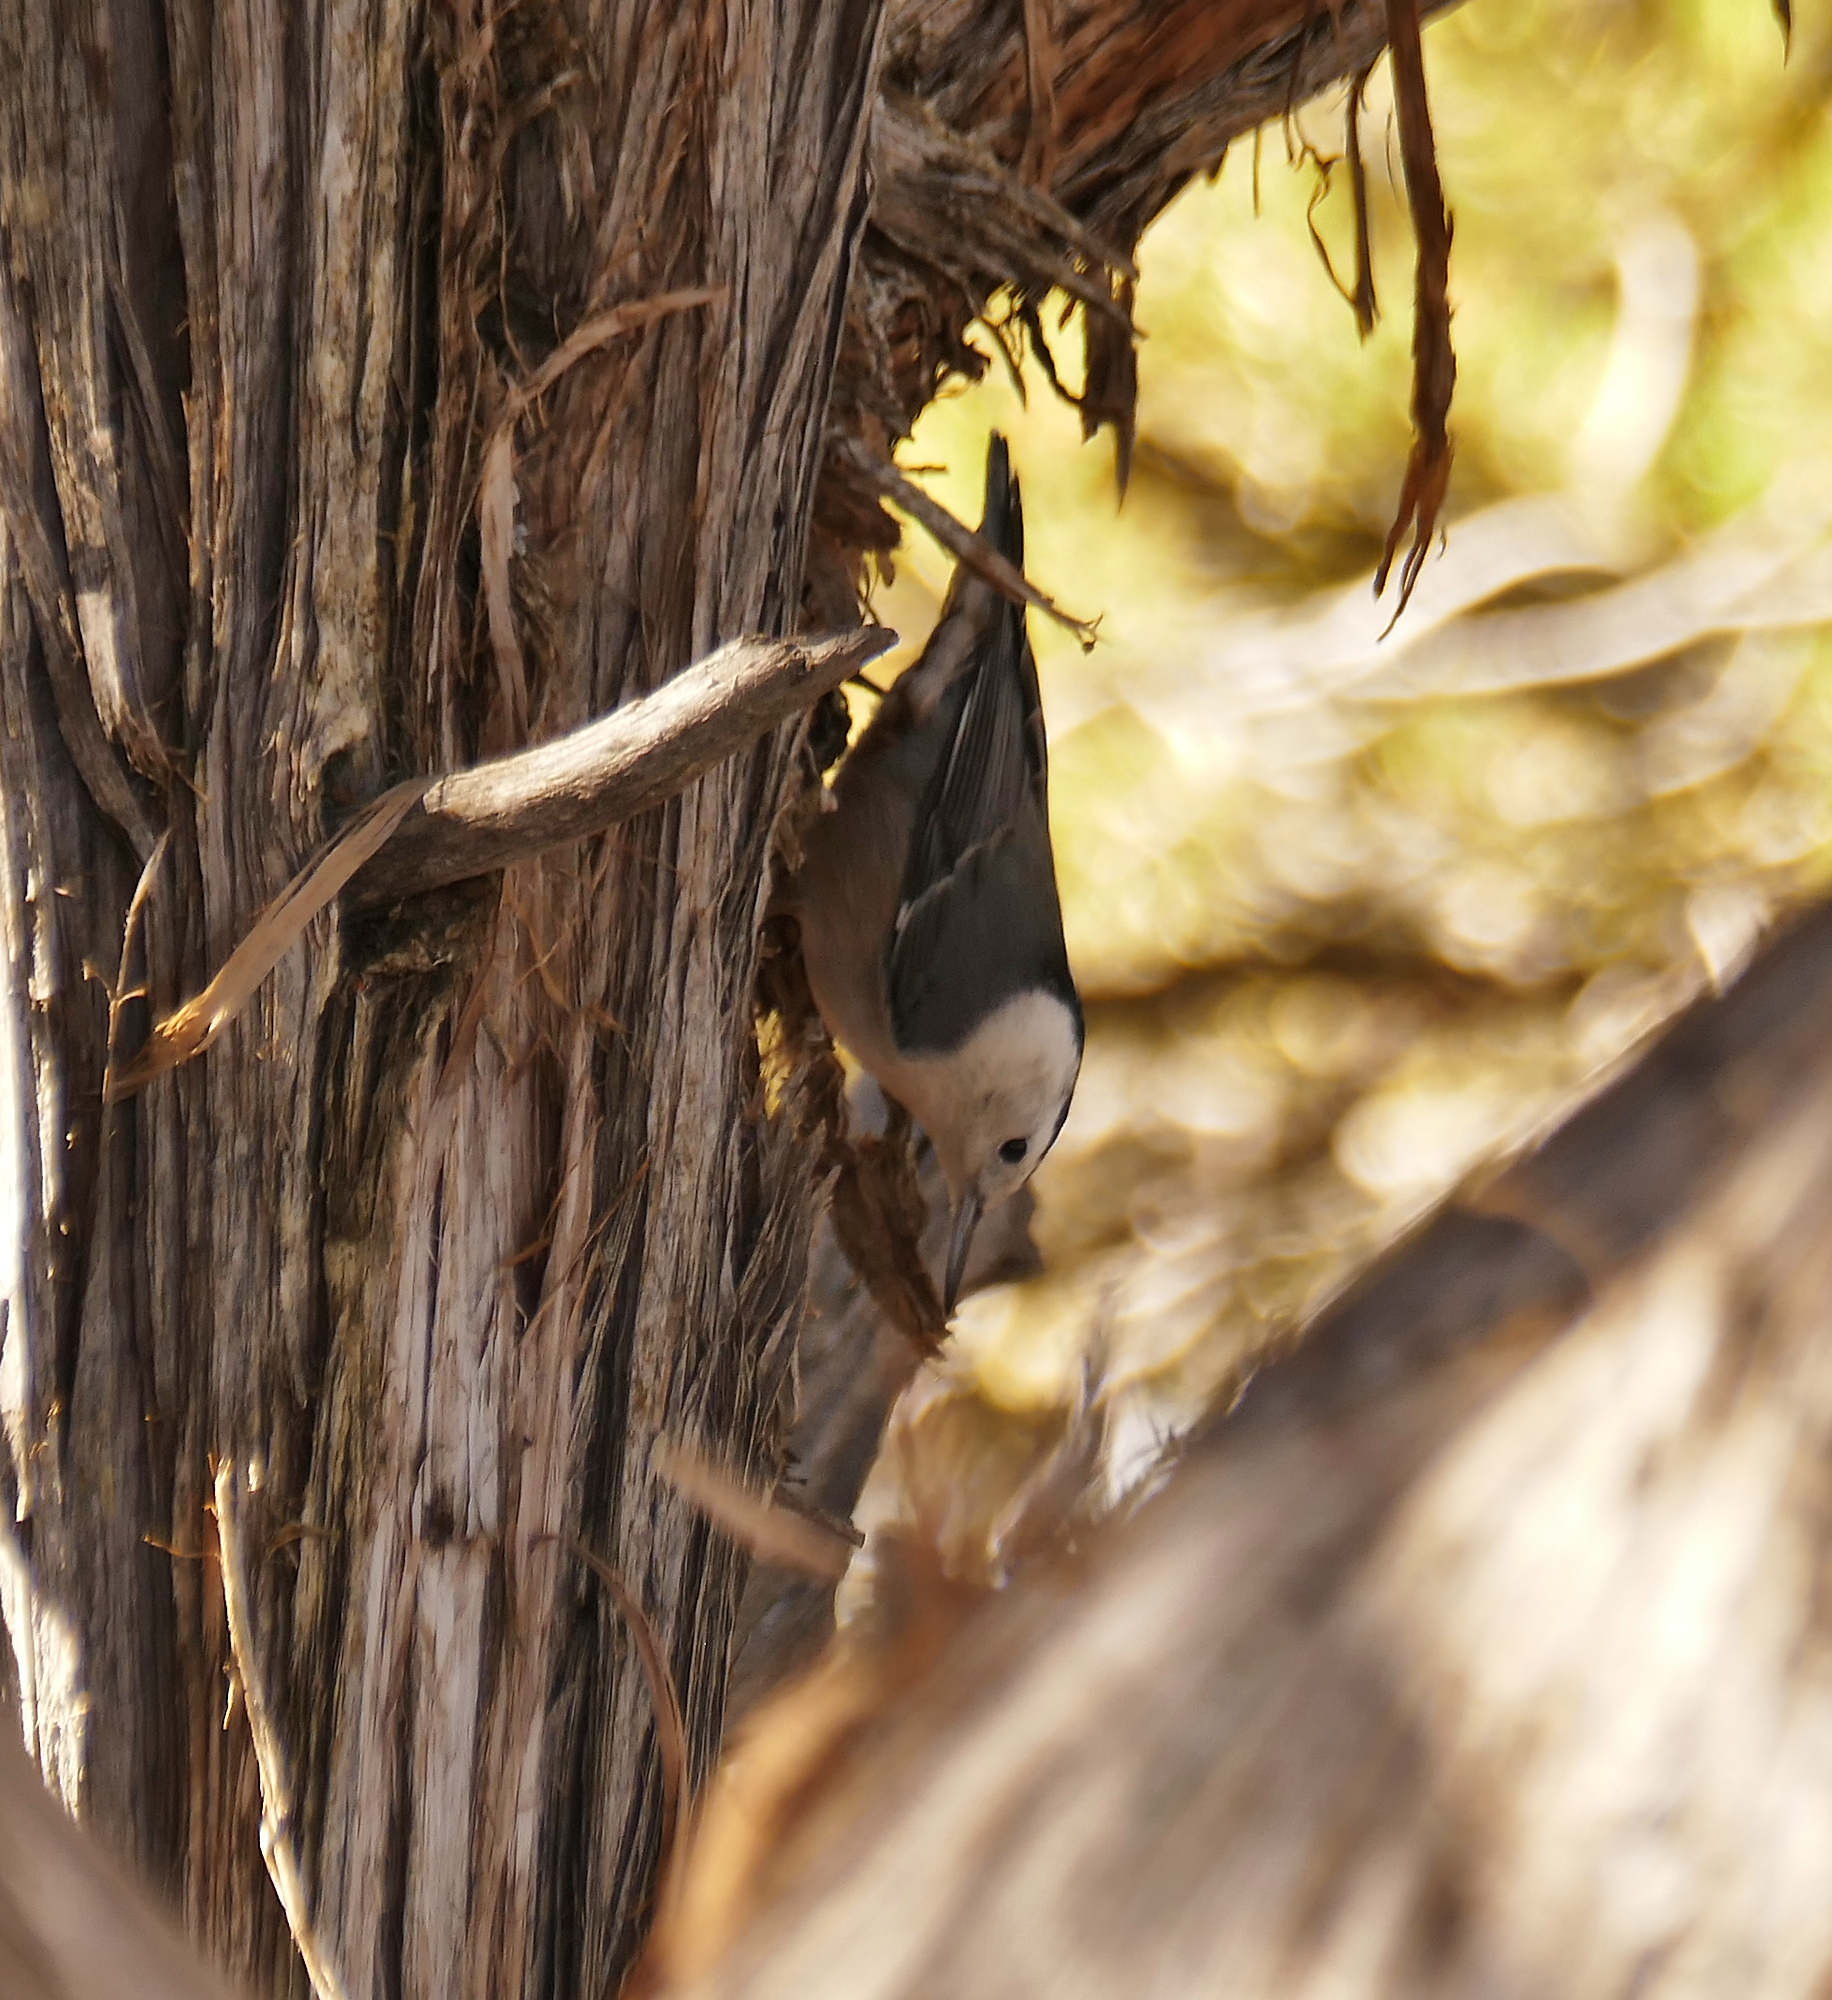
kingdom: Animalia
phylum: Chordata
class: Aves
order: Passeriformes
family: Sittidae
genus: Sitta
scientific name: Sitta carolinensis
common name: White-breasted nuthatch
